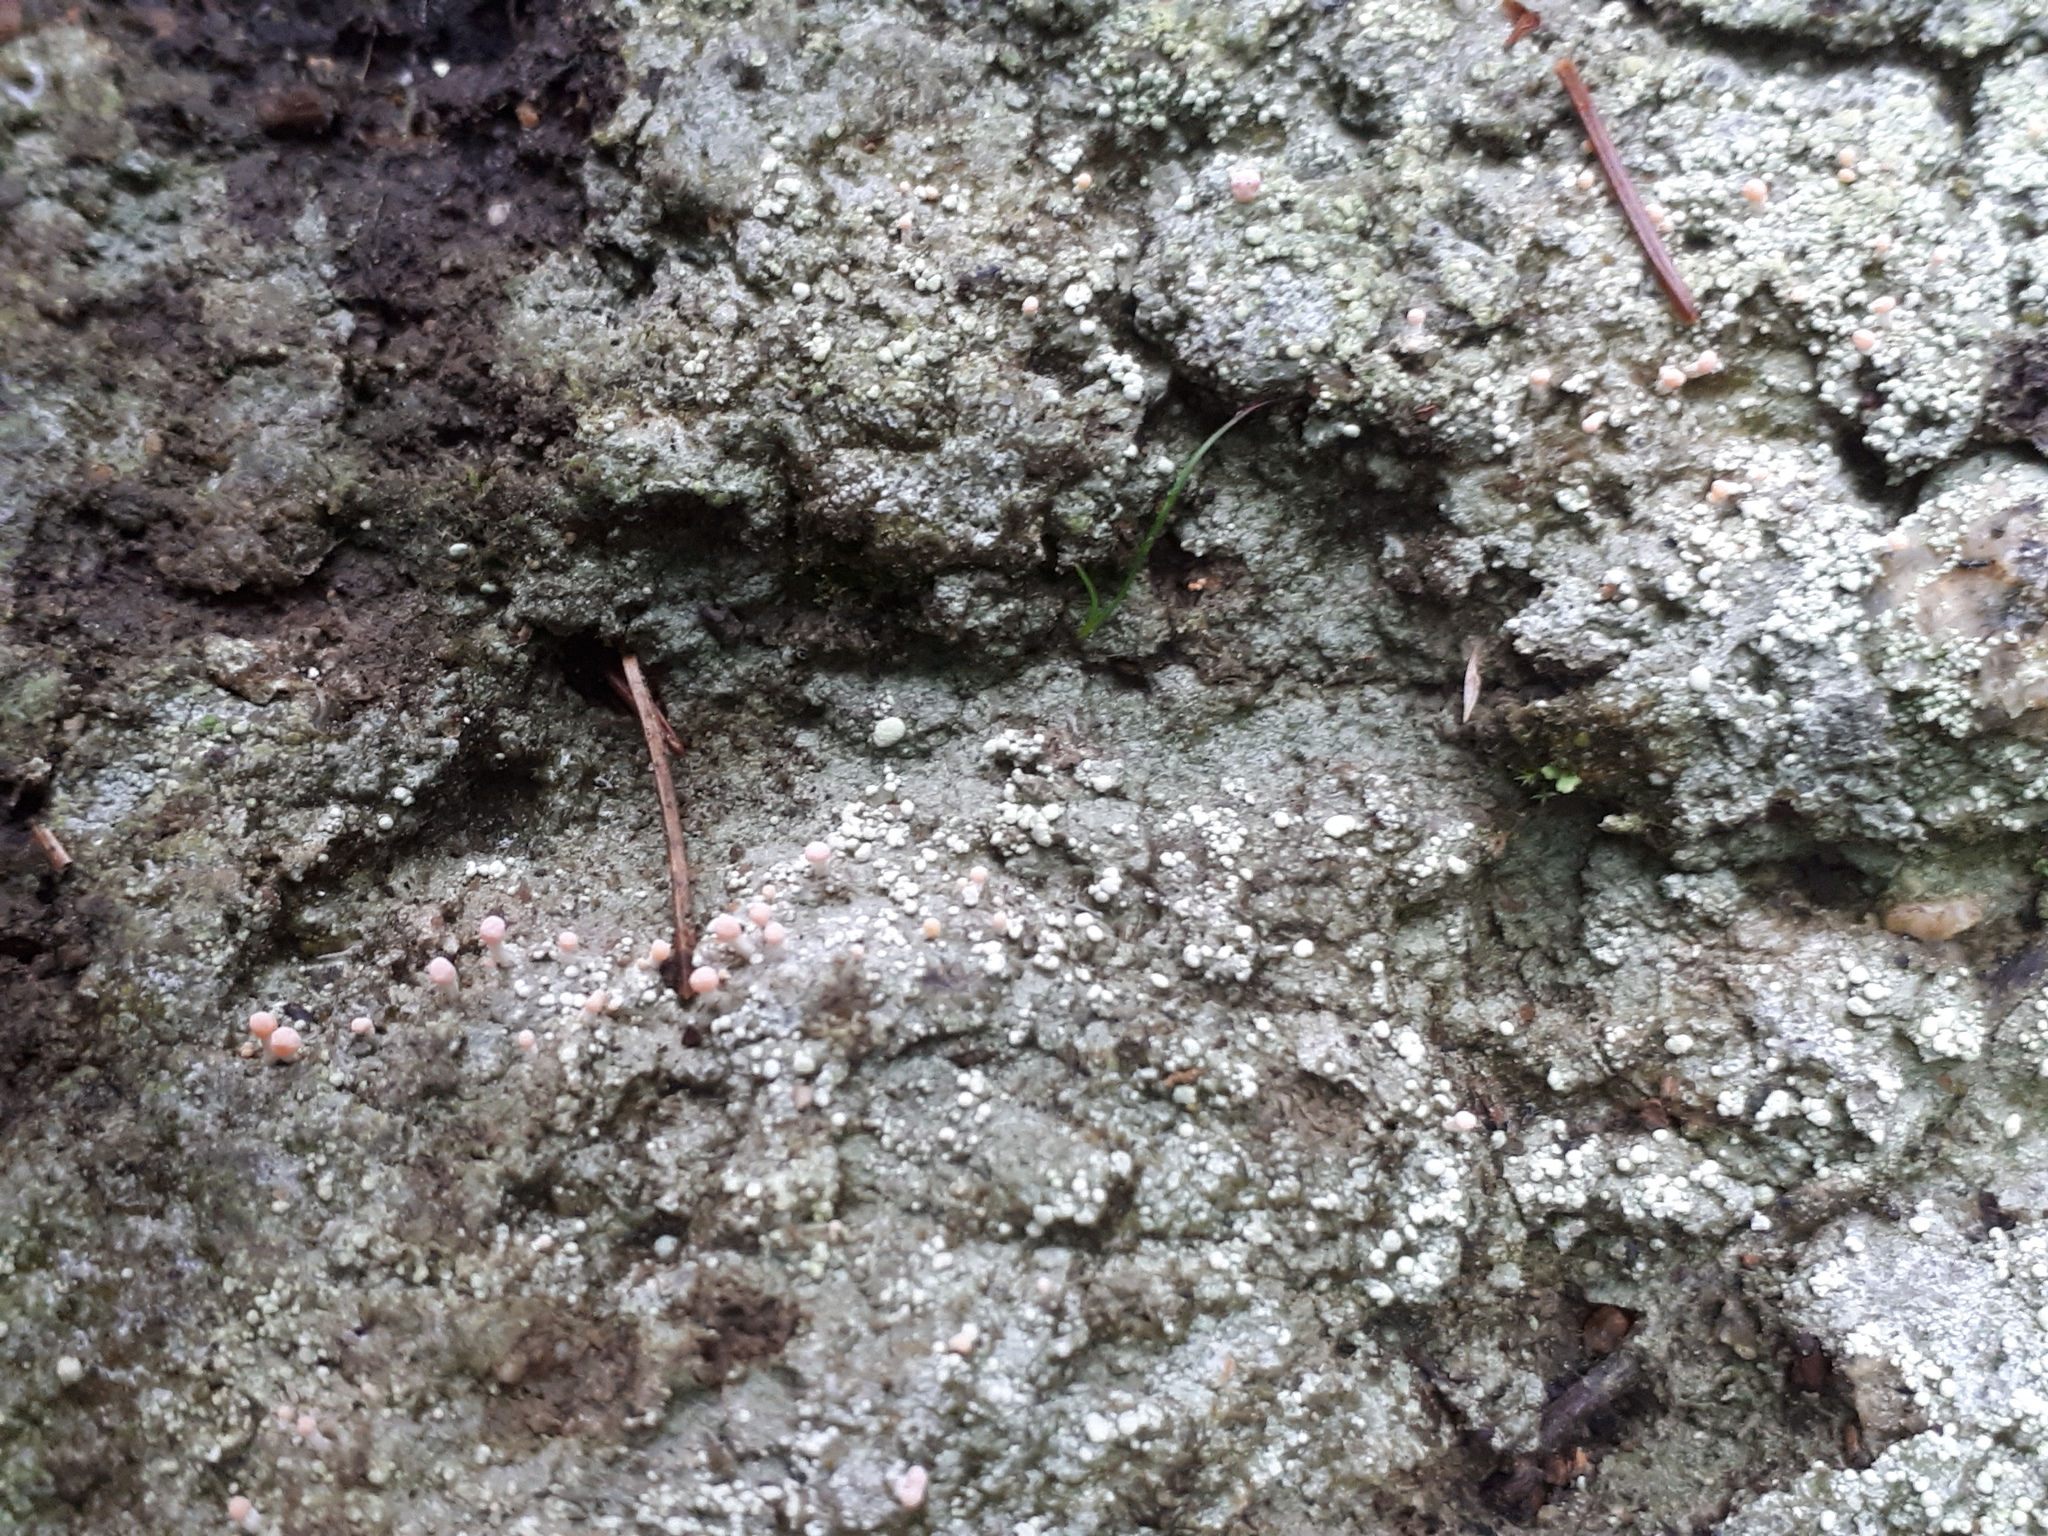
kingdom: Fungi
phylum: Ascomycota
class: Lecanoromycetes
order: Pertusariales
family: Icmadophilaceae
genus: Dibaeis
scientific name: Dibaeis baeomyces
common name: Pink earth lichen
